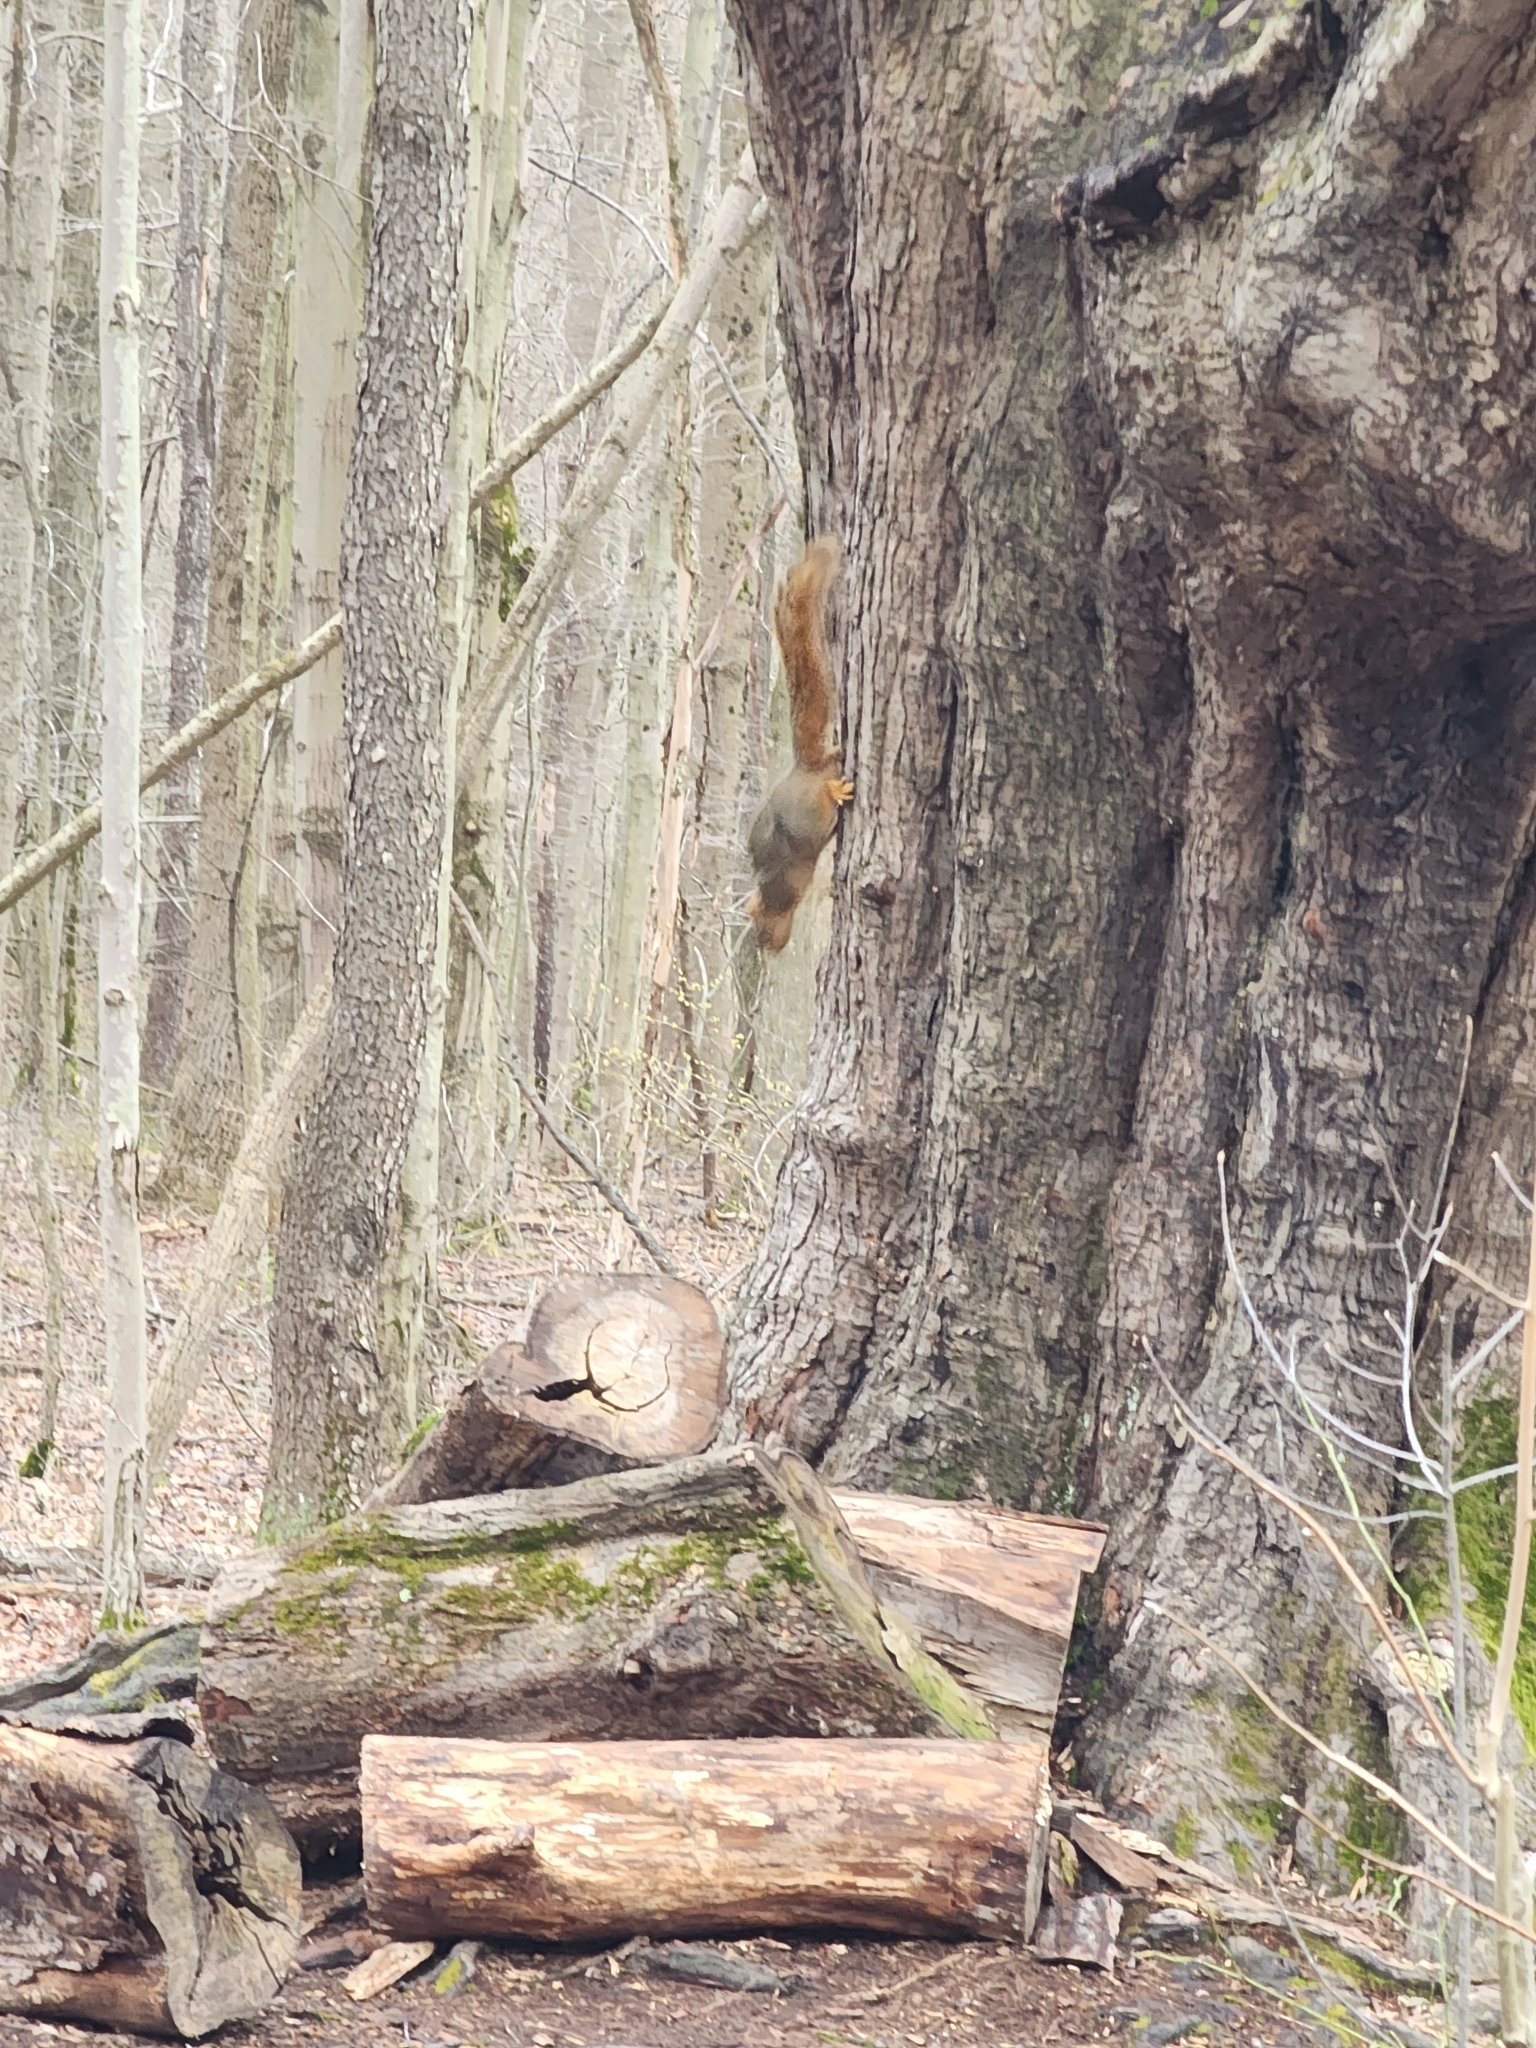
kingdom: Animalia
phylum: Chordata
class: Mammalia
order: Rodentia
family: Sciuridae
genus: Sciurus
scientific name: Sciurus niger
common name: Fox squirrel
